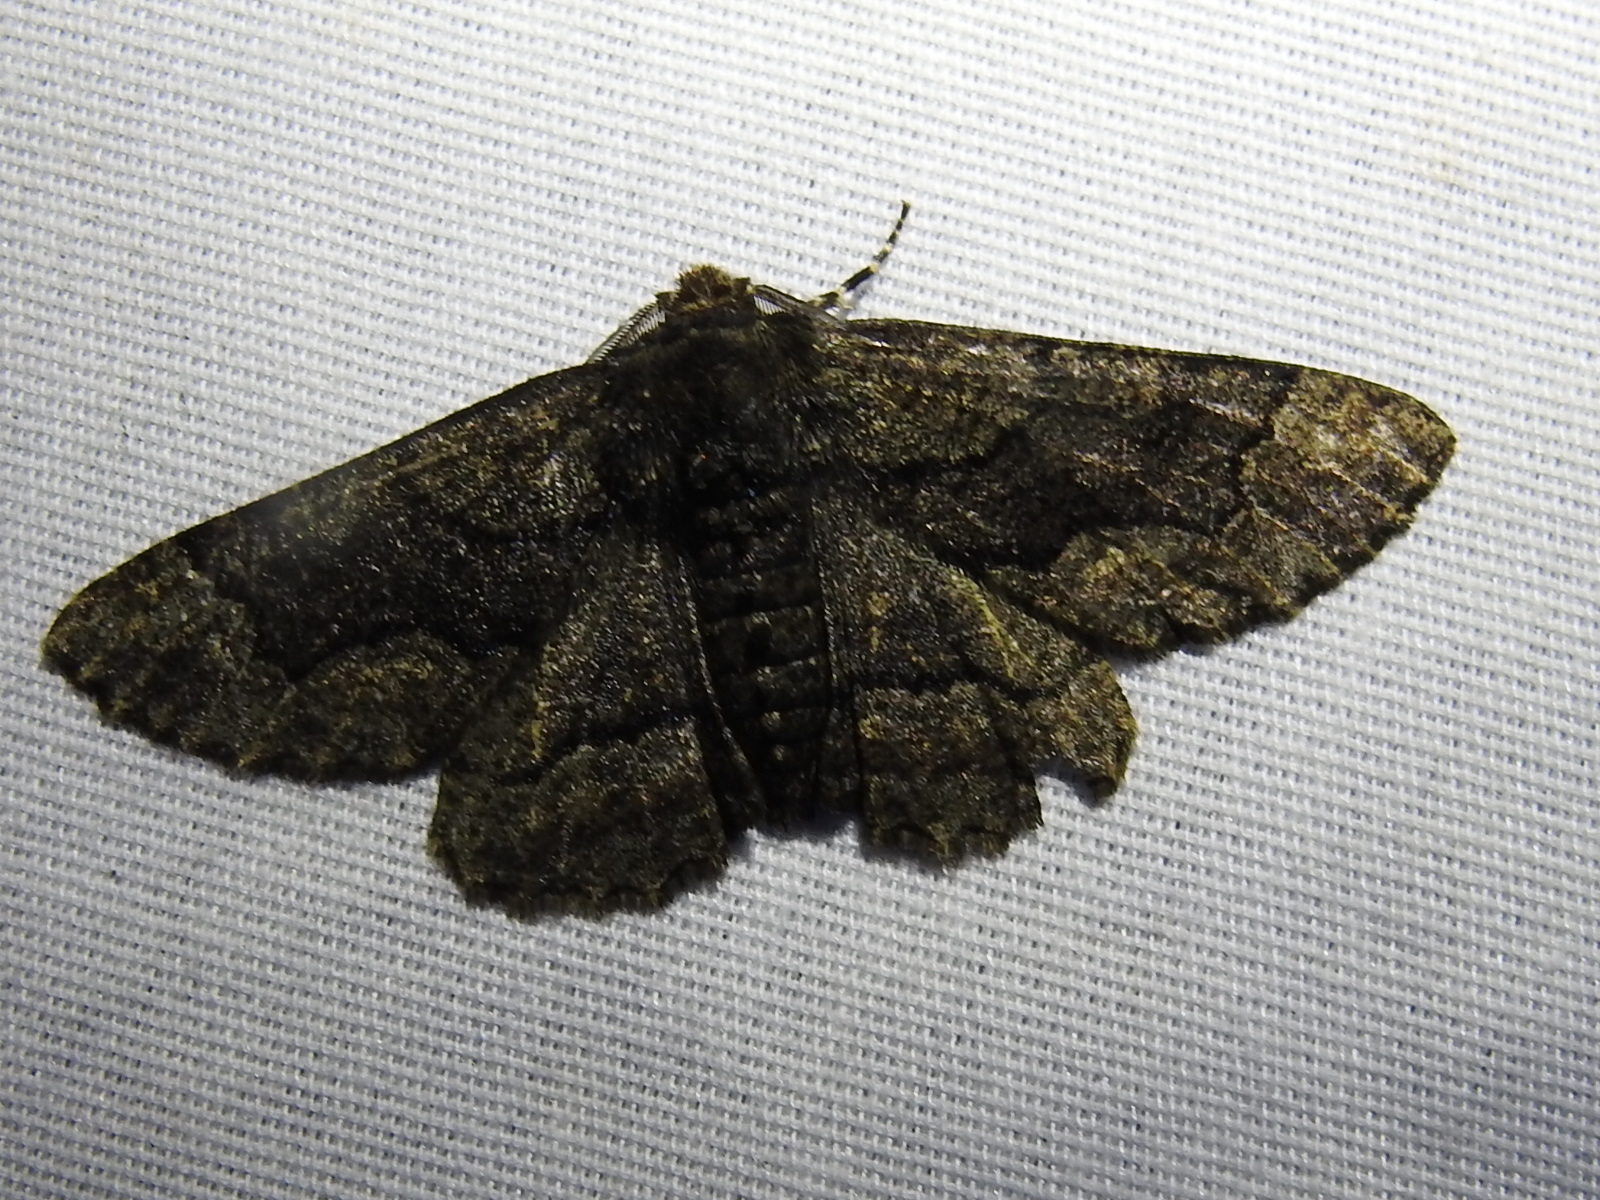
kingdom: Animalia
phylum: Arthropoda
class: Insecta
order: Lepidoptera
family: Geometridae
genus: Phaeoura
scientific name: Phaeoura quernaria
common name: Oak beauty
